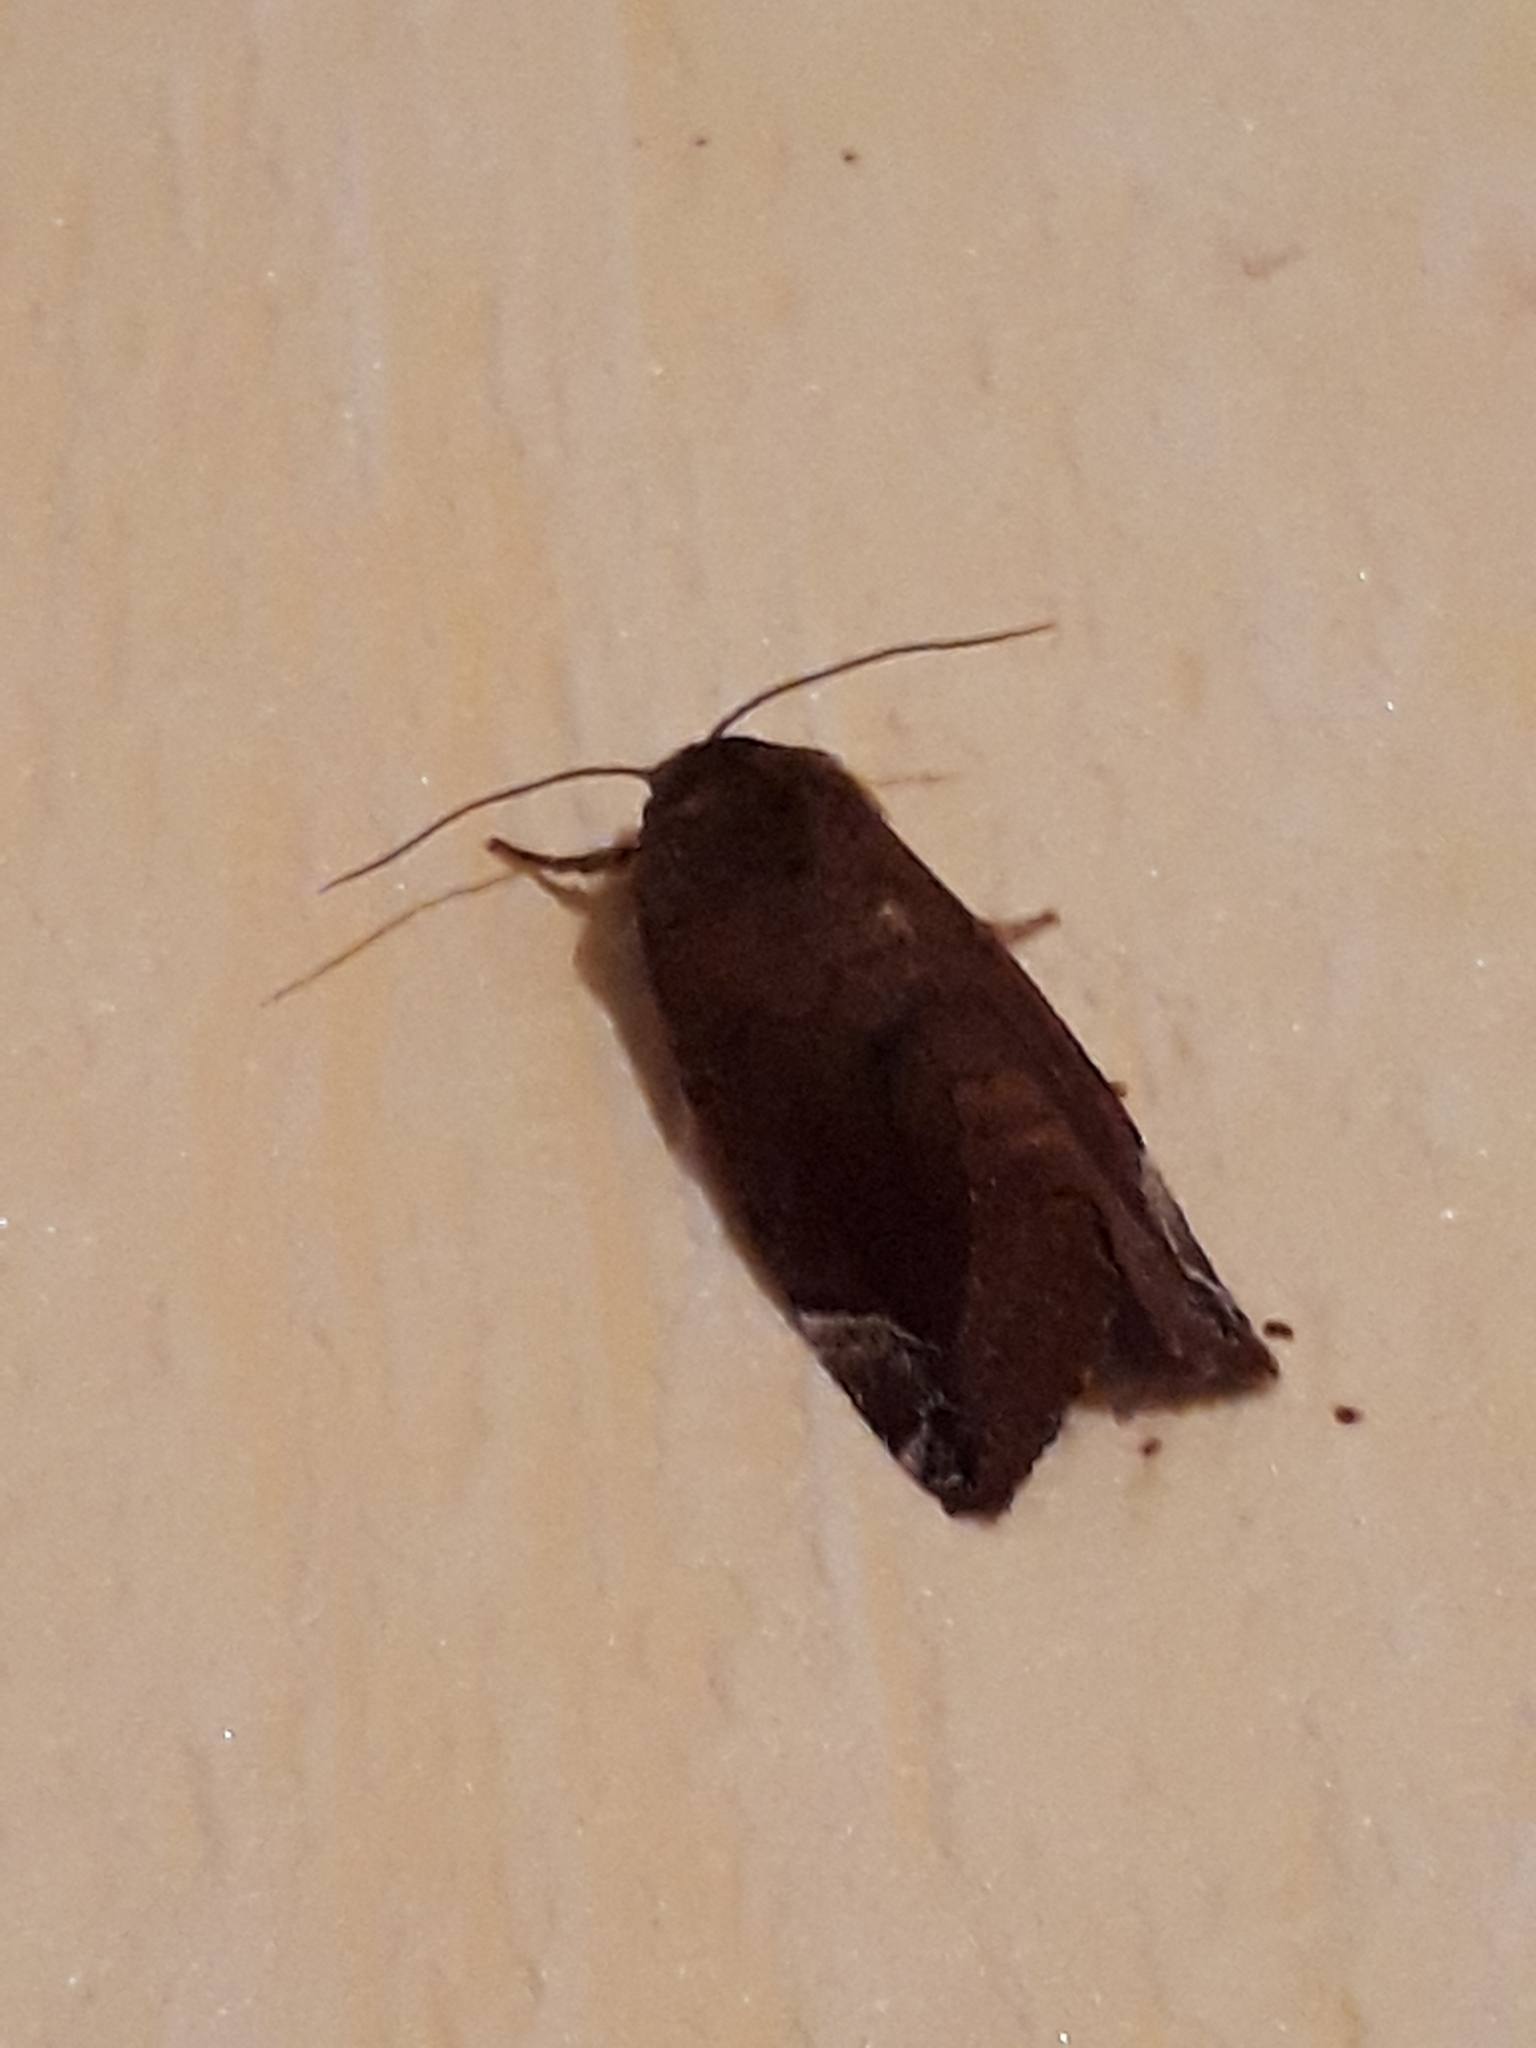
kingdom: Animalia
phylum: Arthropoda
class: Insecta
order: Lepidoptera
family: Noctuidae
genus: Cosmia
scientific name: Cosmia pyralina
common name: Lunar-spotted pinion
